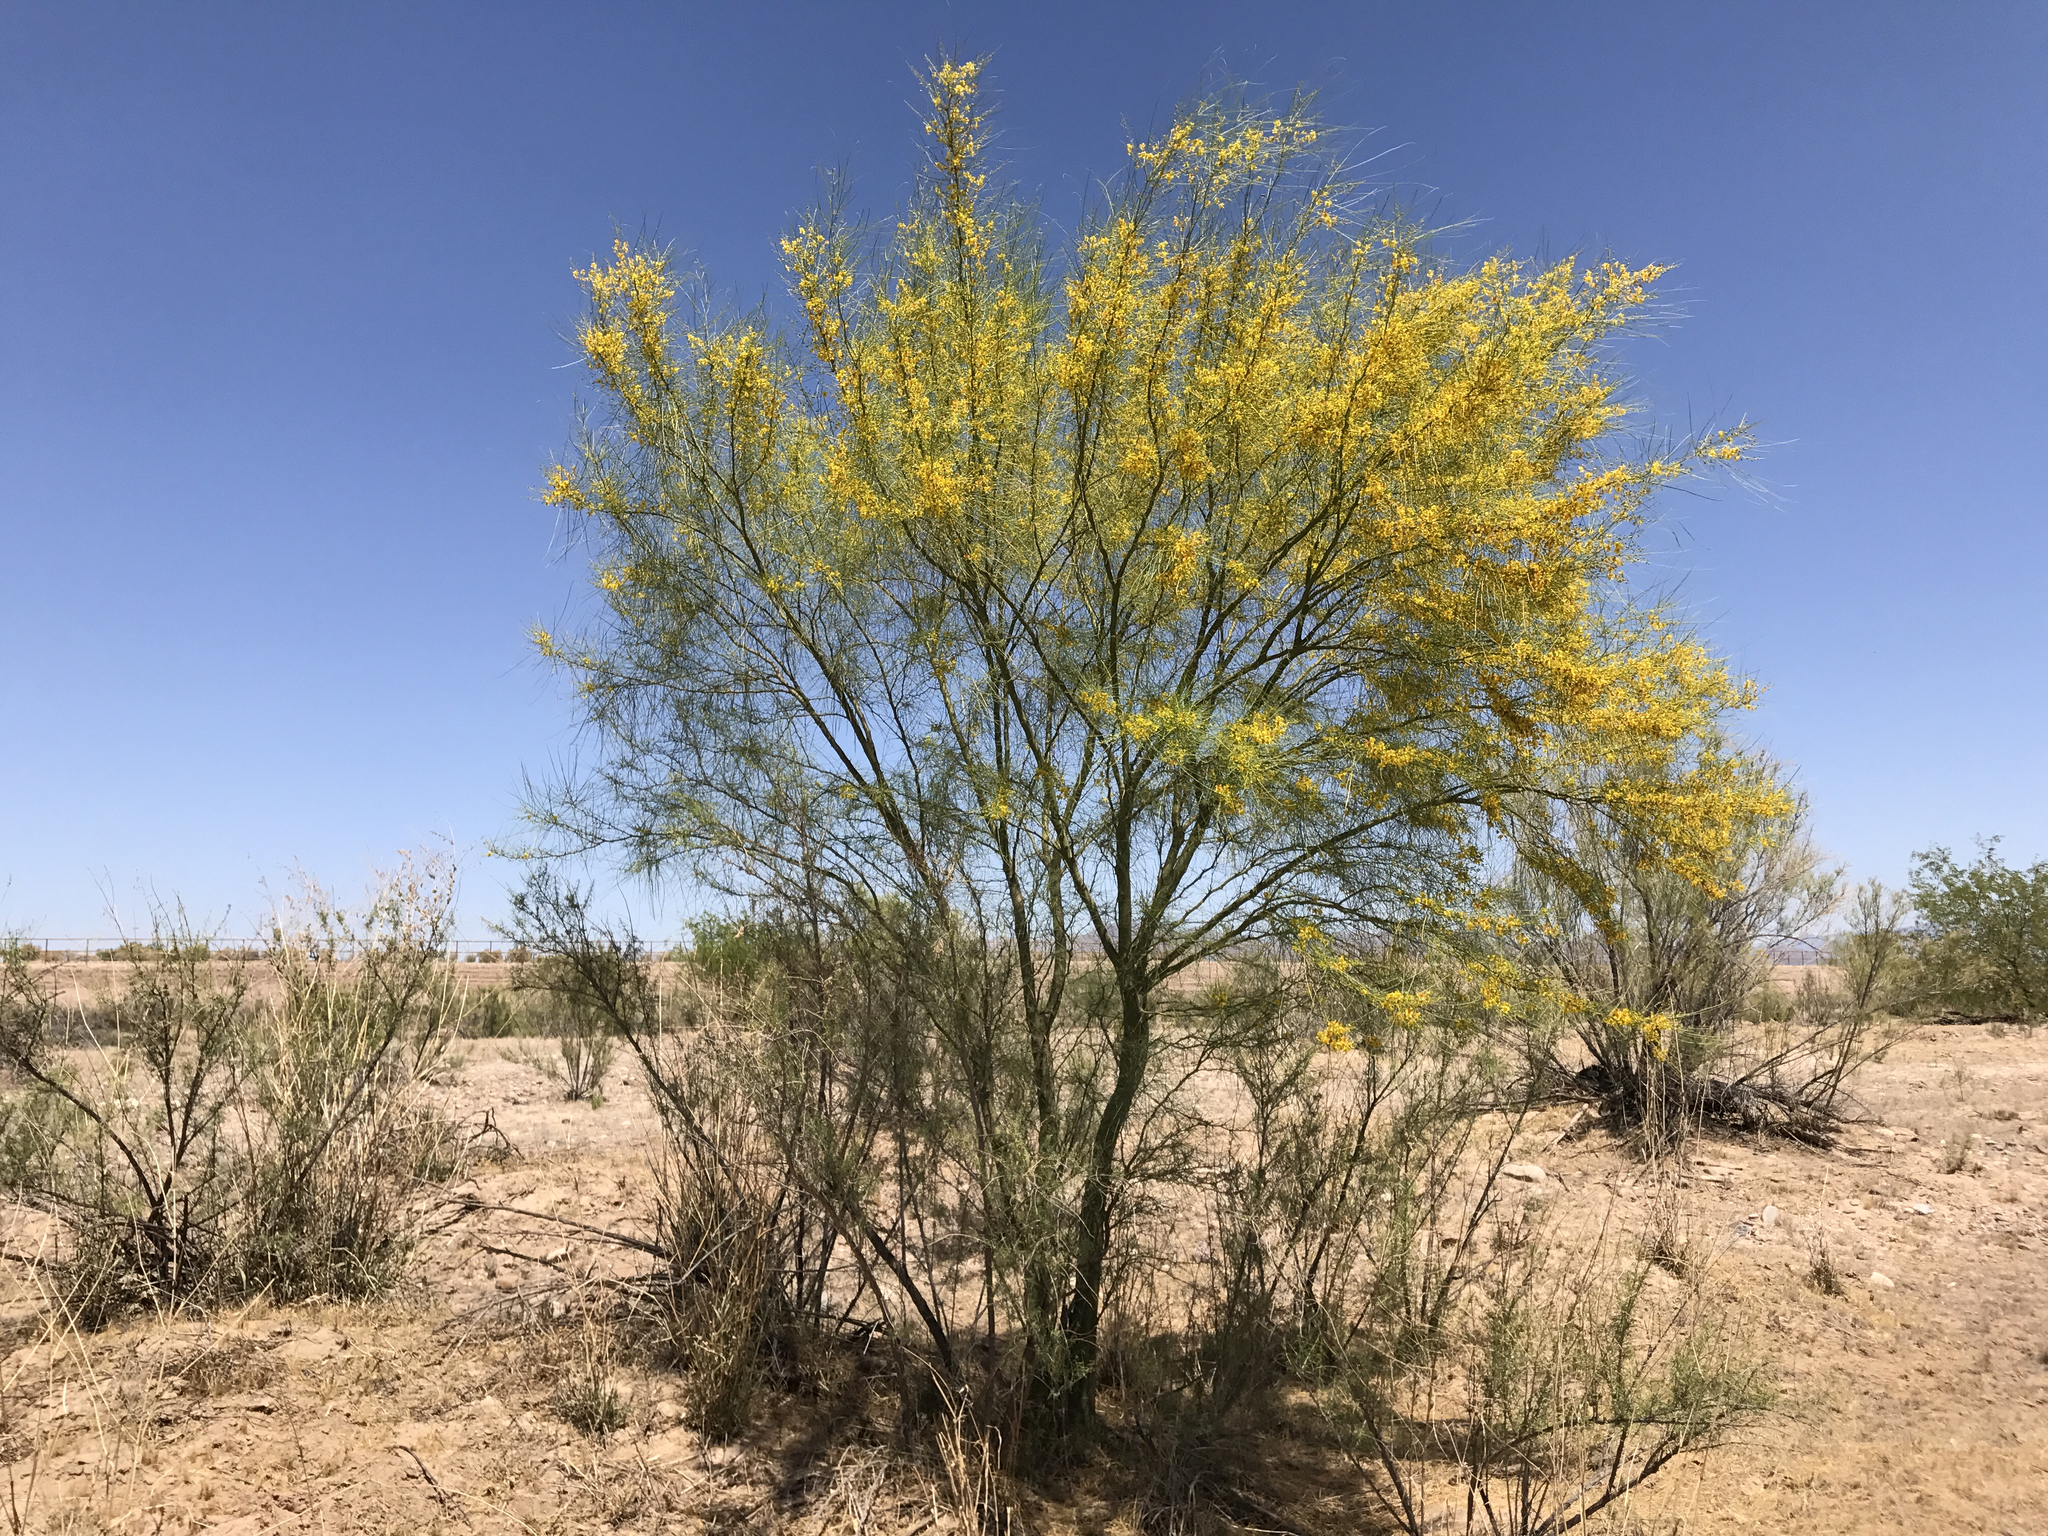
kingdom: Plantae
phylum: Tracheophyta
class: Magnoliopsida
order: Fabales
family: Fabaceae
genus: Parkinsonia
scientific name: Parkinsonia aculeata
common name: Jerusalem thorn
